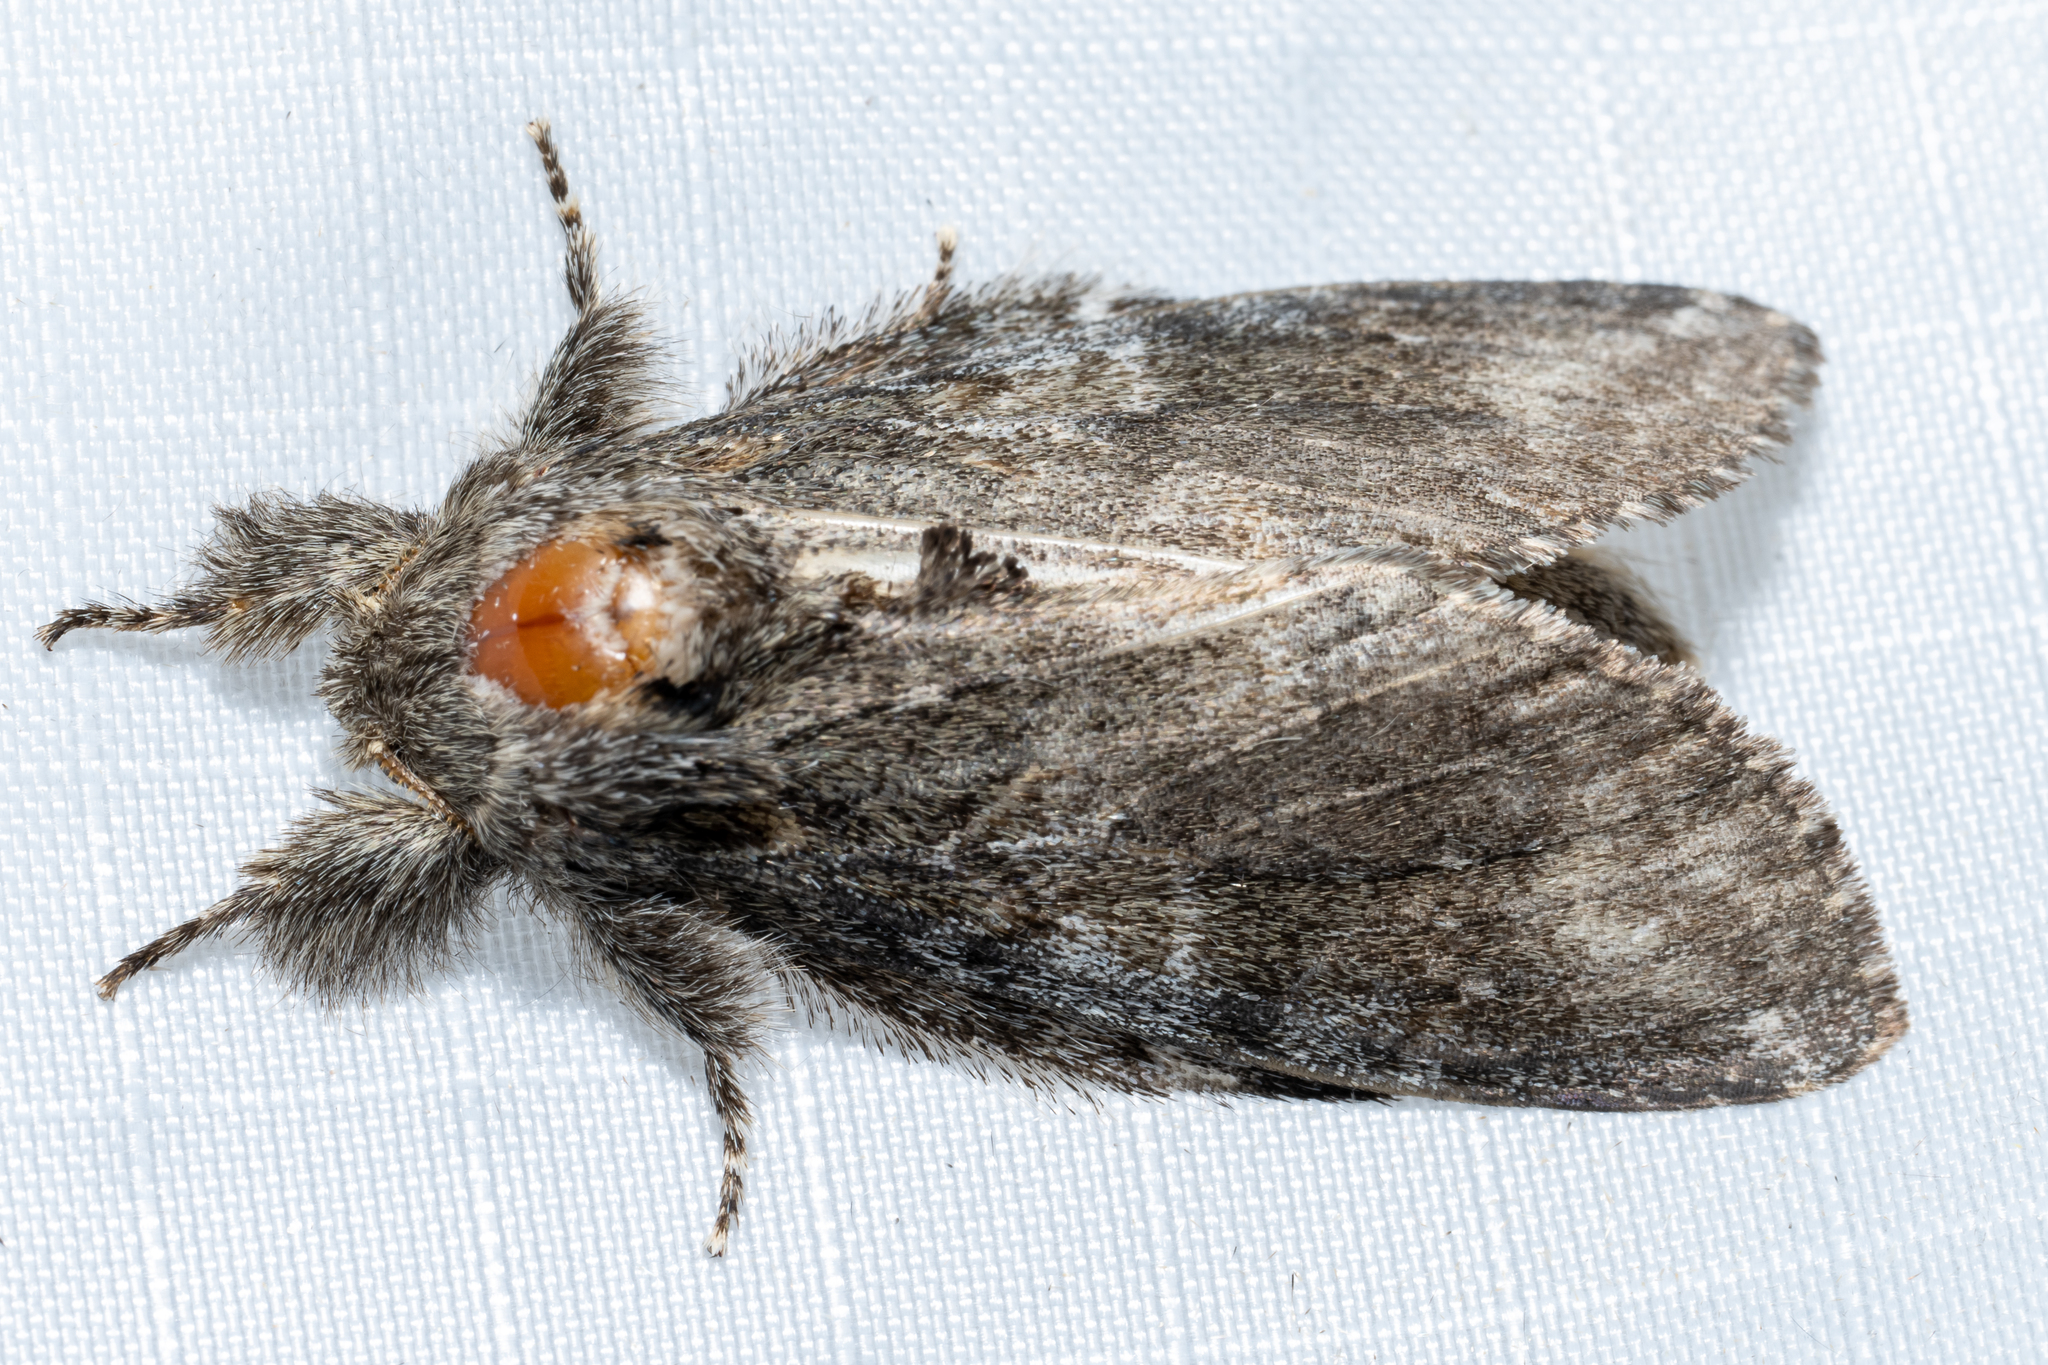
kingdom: Animalia
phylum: Arthropoda
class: Insecta
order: Lepidoptera
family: Notodontidae
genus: Peridea
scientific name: Peridea angulosa
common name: Angulose prominent
